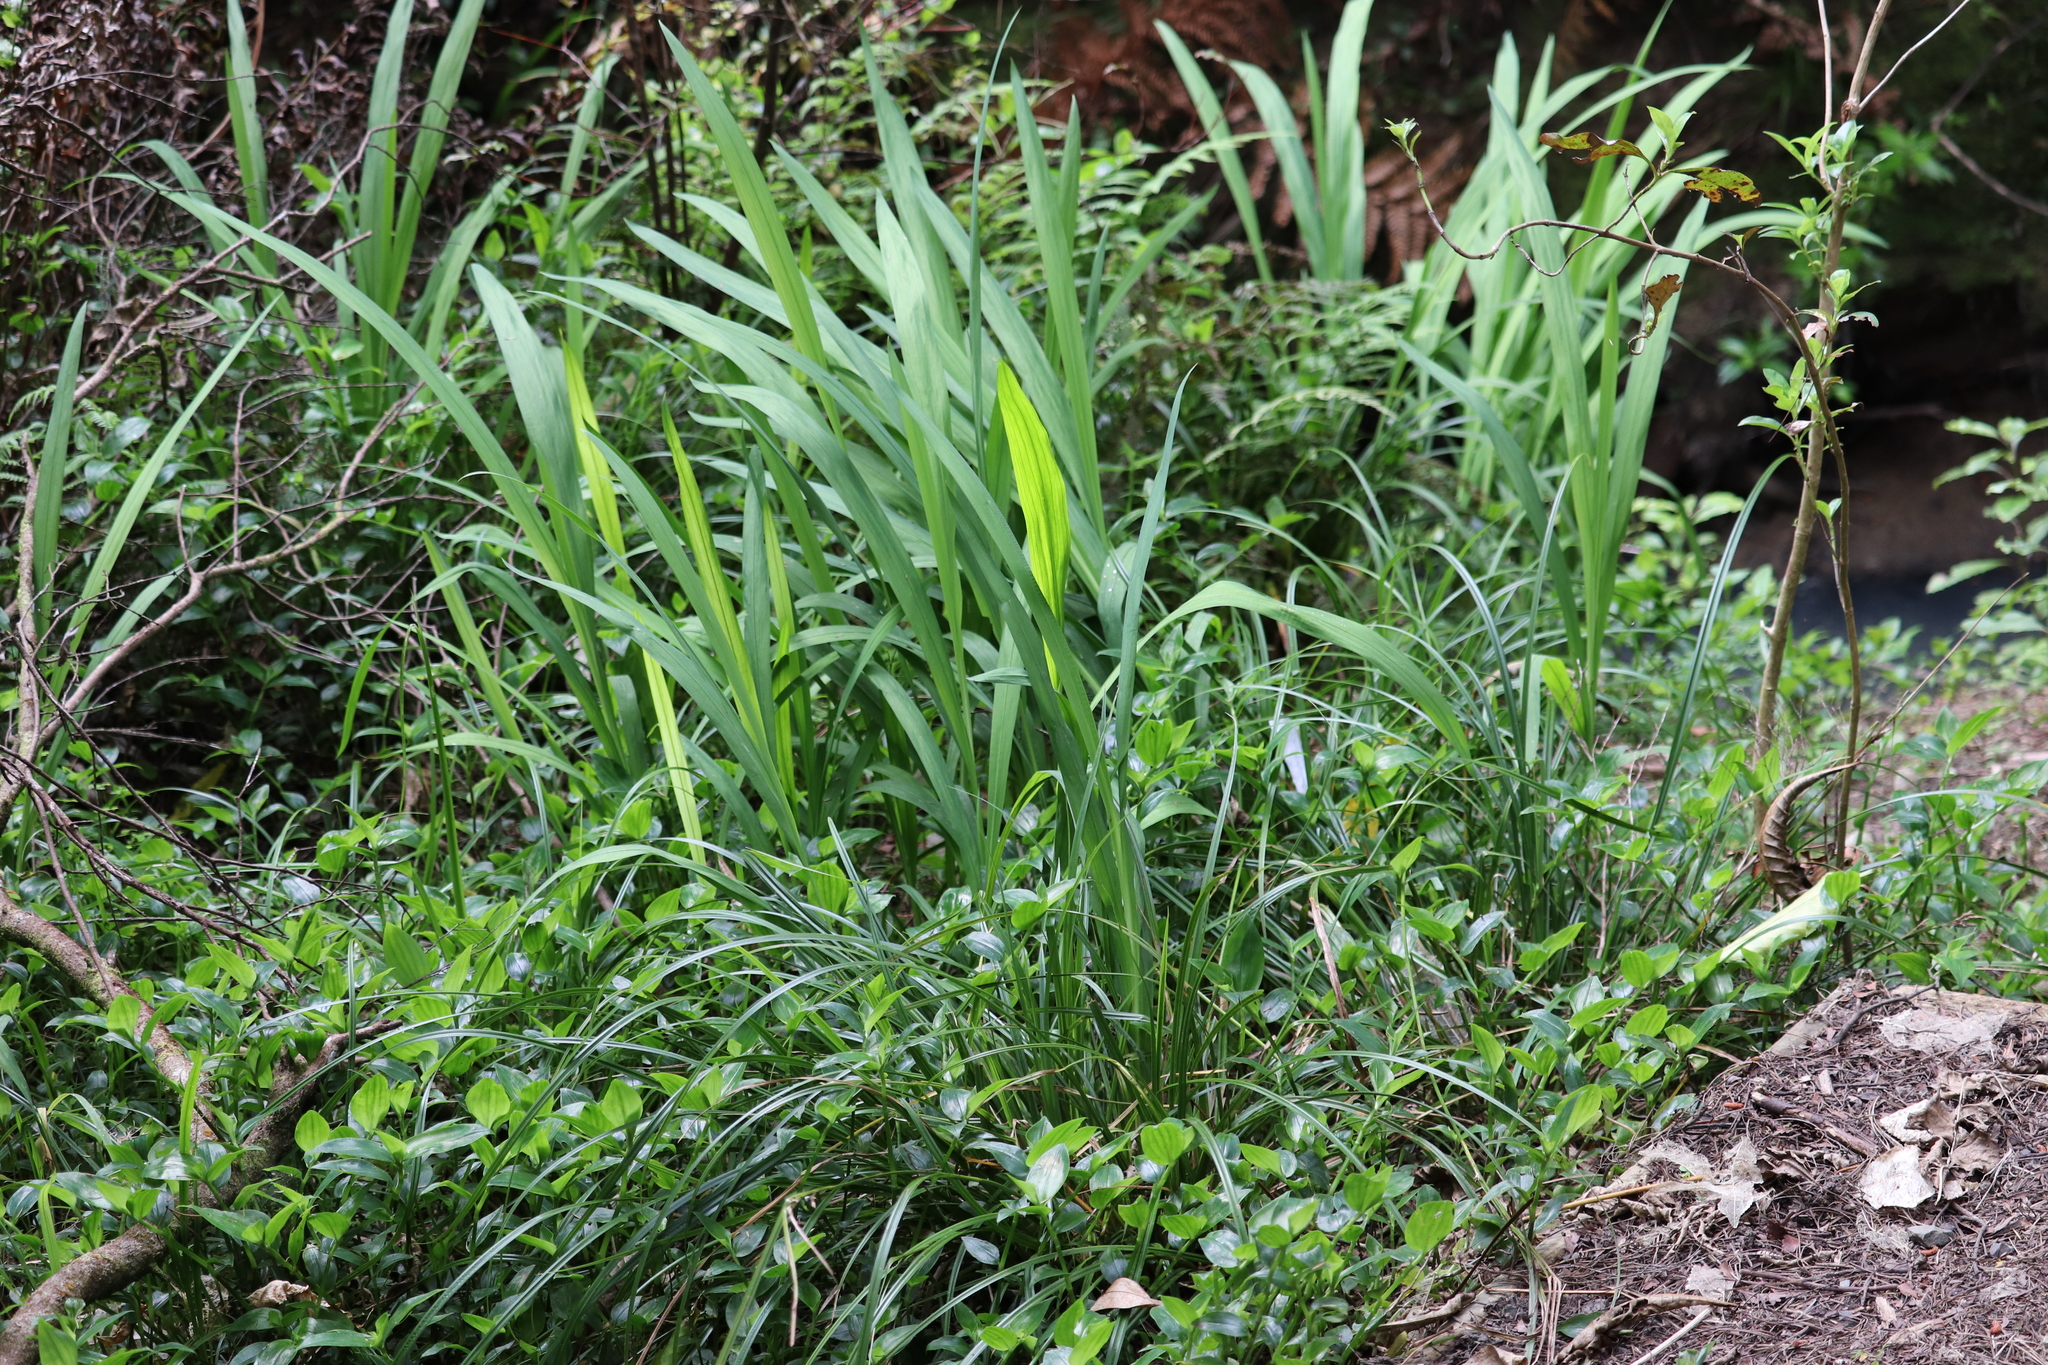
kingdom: Plantae
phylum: Tracheophyta
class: Liliopsida
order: Asparagales
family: Iridaceae
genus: Crocosmia
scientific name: Crocosmia crocosmiiflora
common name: Montbretia
